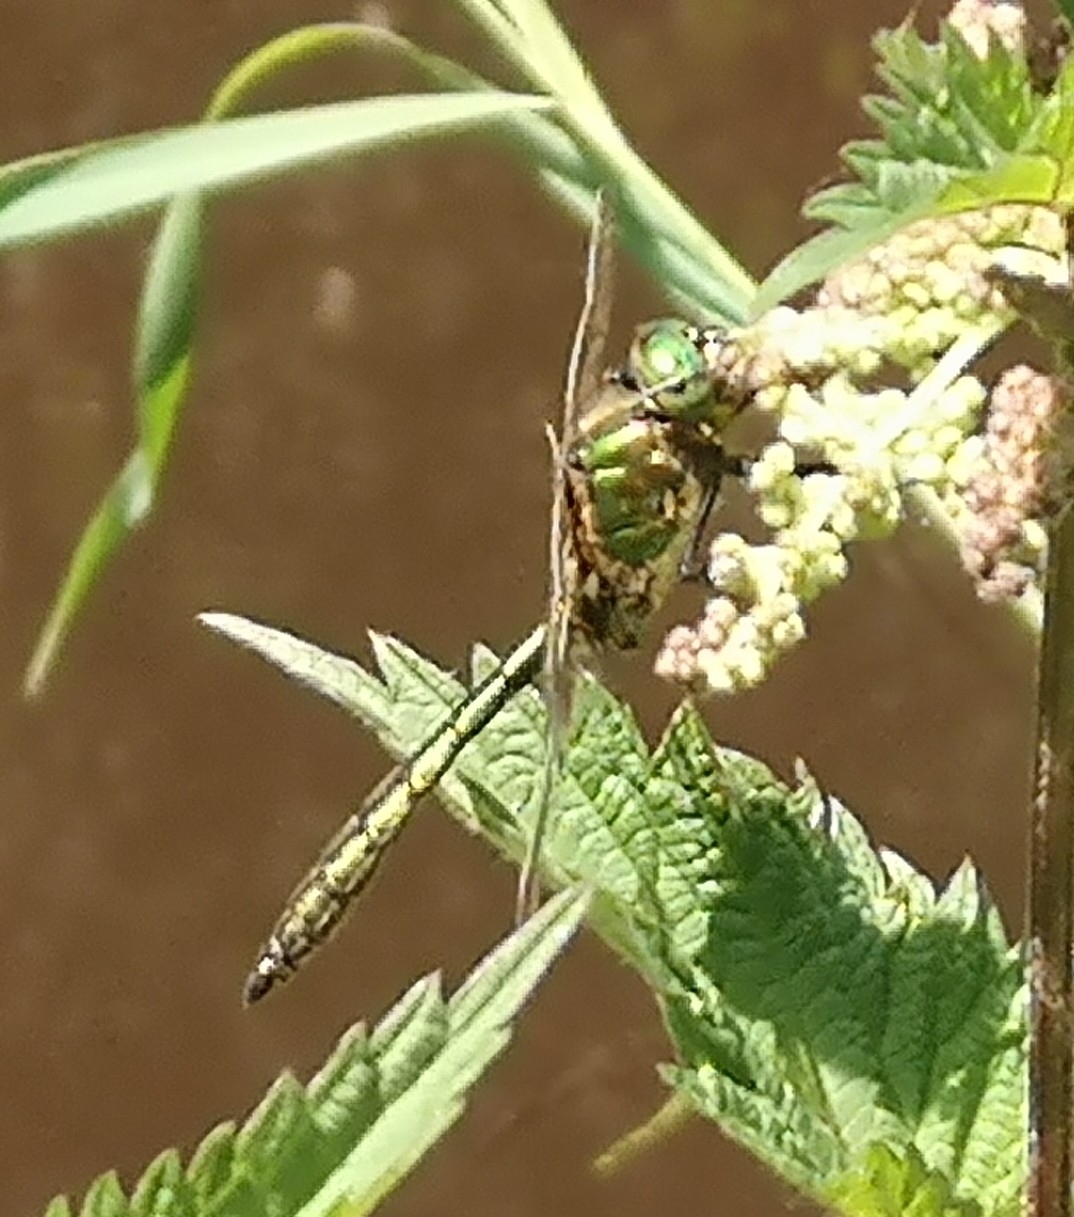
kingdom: Animalia
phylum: Arthropoda
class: Insecta
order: Odonata
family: Corduliidae
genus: Somatochlora
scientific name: Somatochlora metallica
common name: Brilliant emerald
